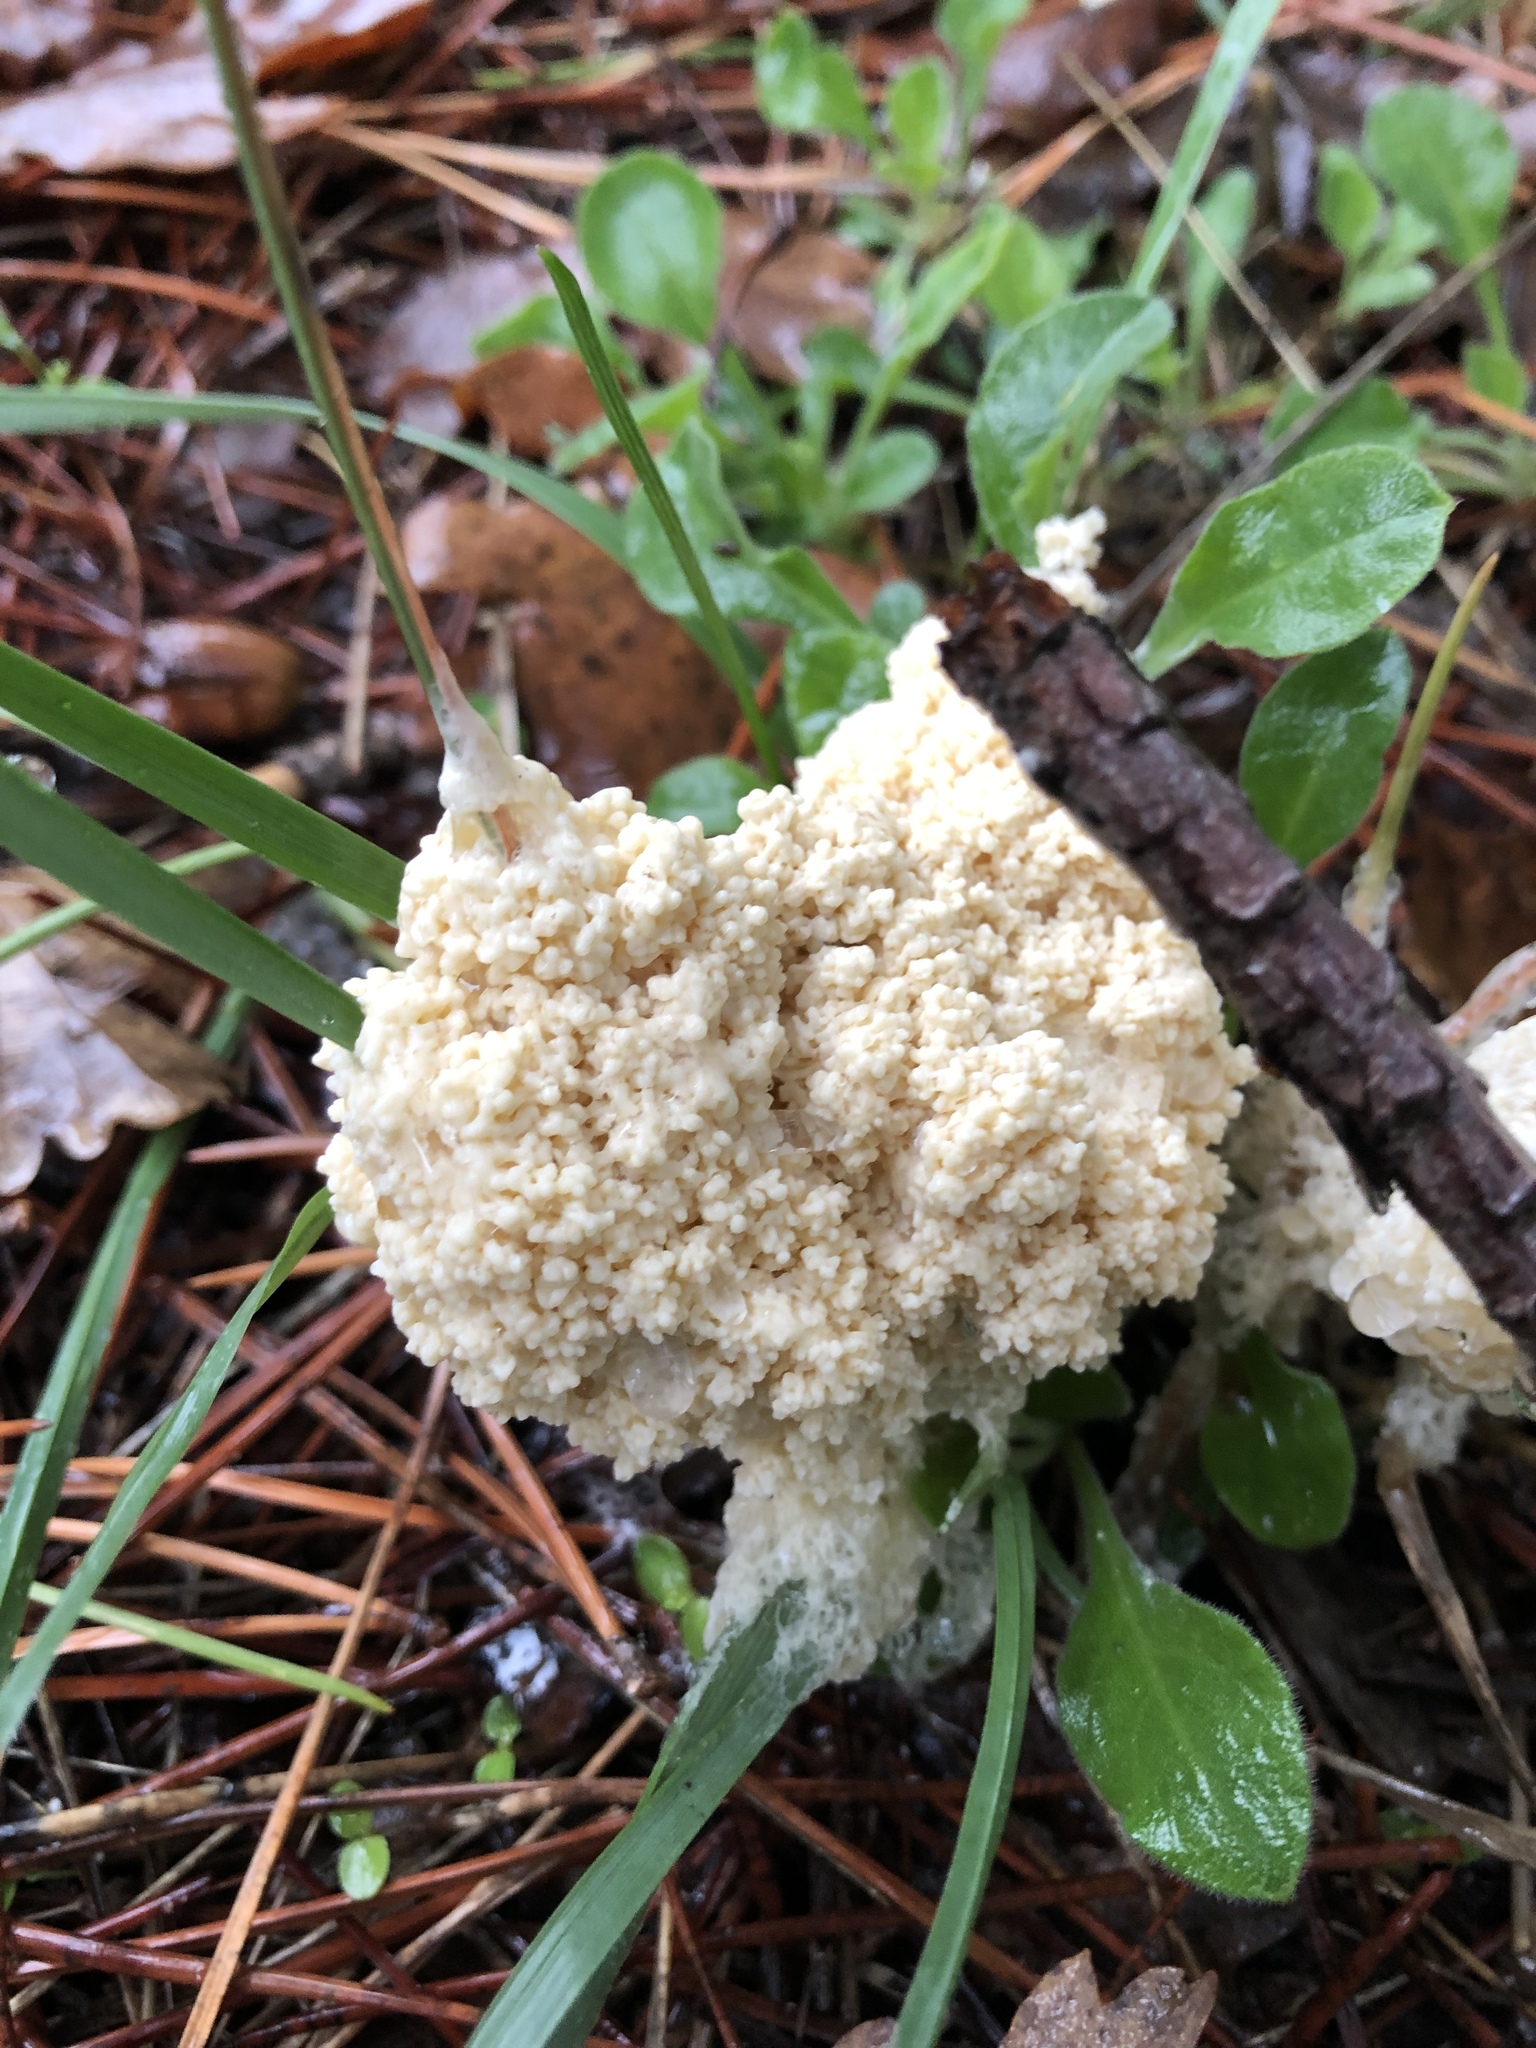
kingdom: Protozoa
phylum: Mycetozoa
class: Myxomycetes
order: Physarales
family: Physaraceae
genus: Fuligo
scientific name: Fuligo septica
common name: Dog vomit slime mold
